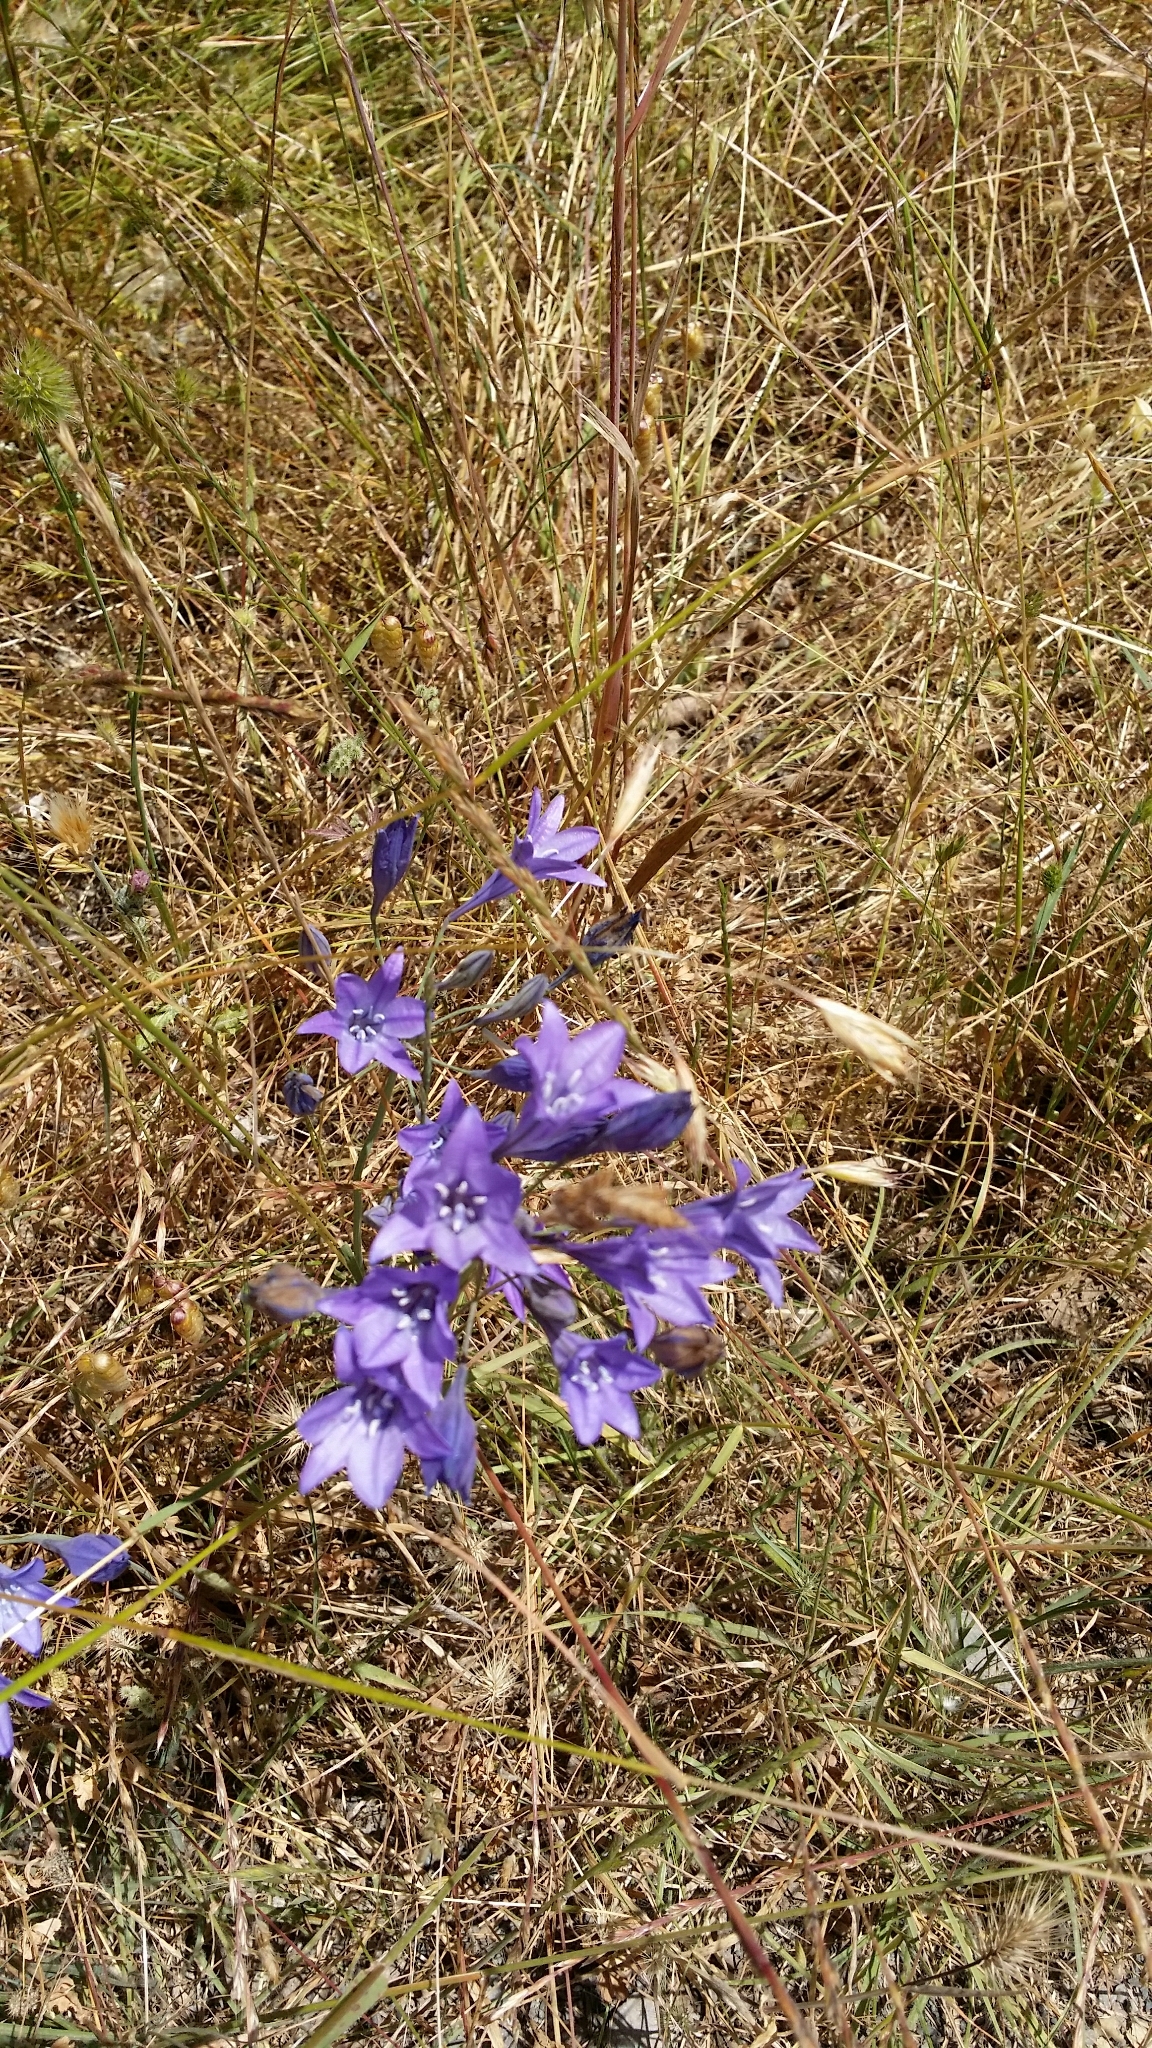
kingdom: Plantae
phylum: Tracheophyta
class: Liliopsida
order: Asparagales
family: Asparagaceae
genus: Triteleia
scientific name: Triteleia laxa
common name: Triplet-lily
